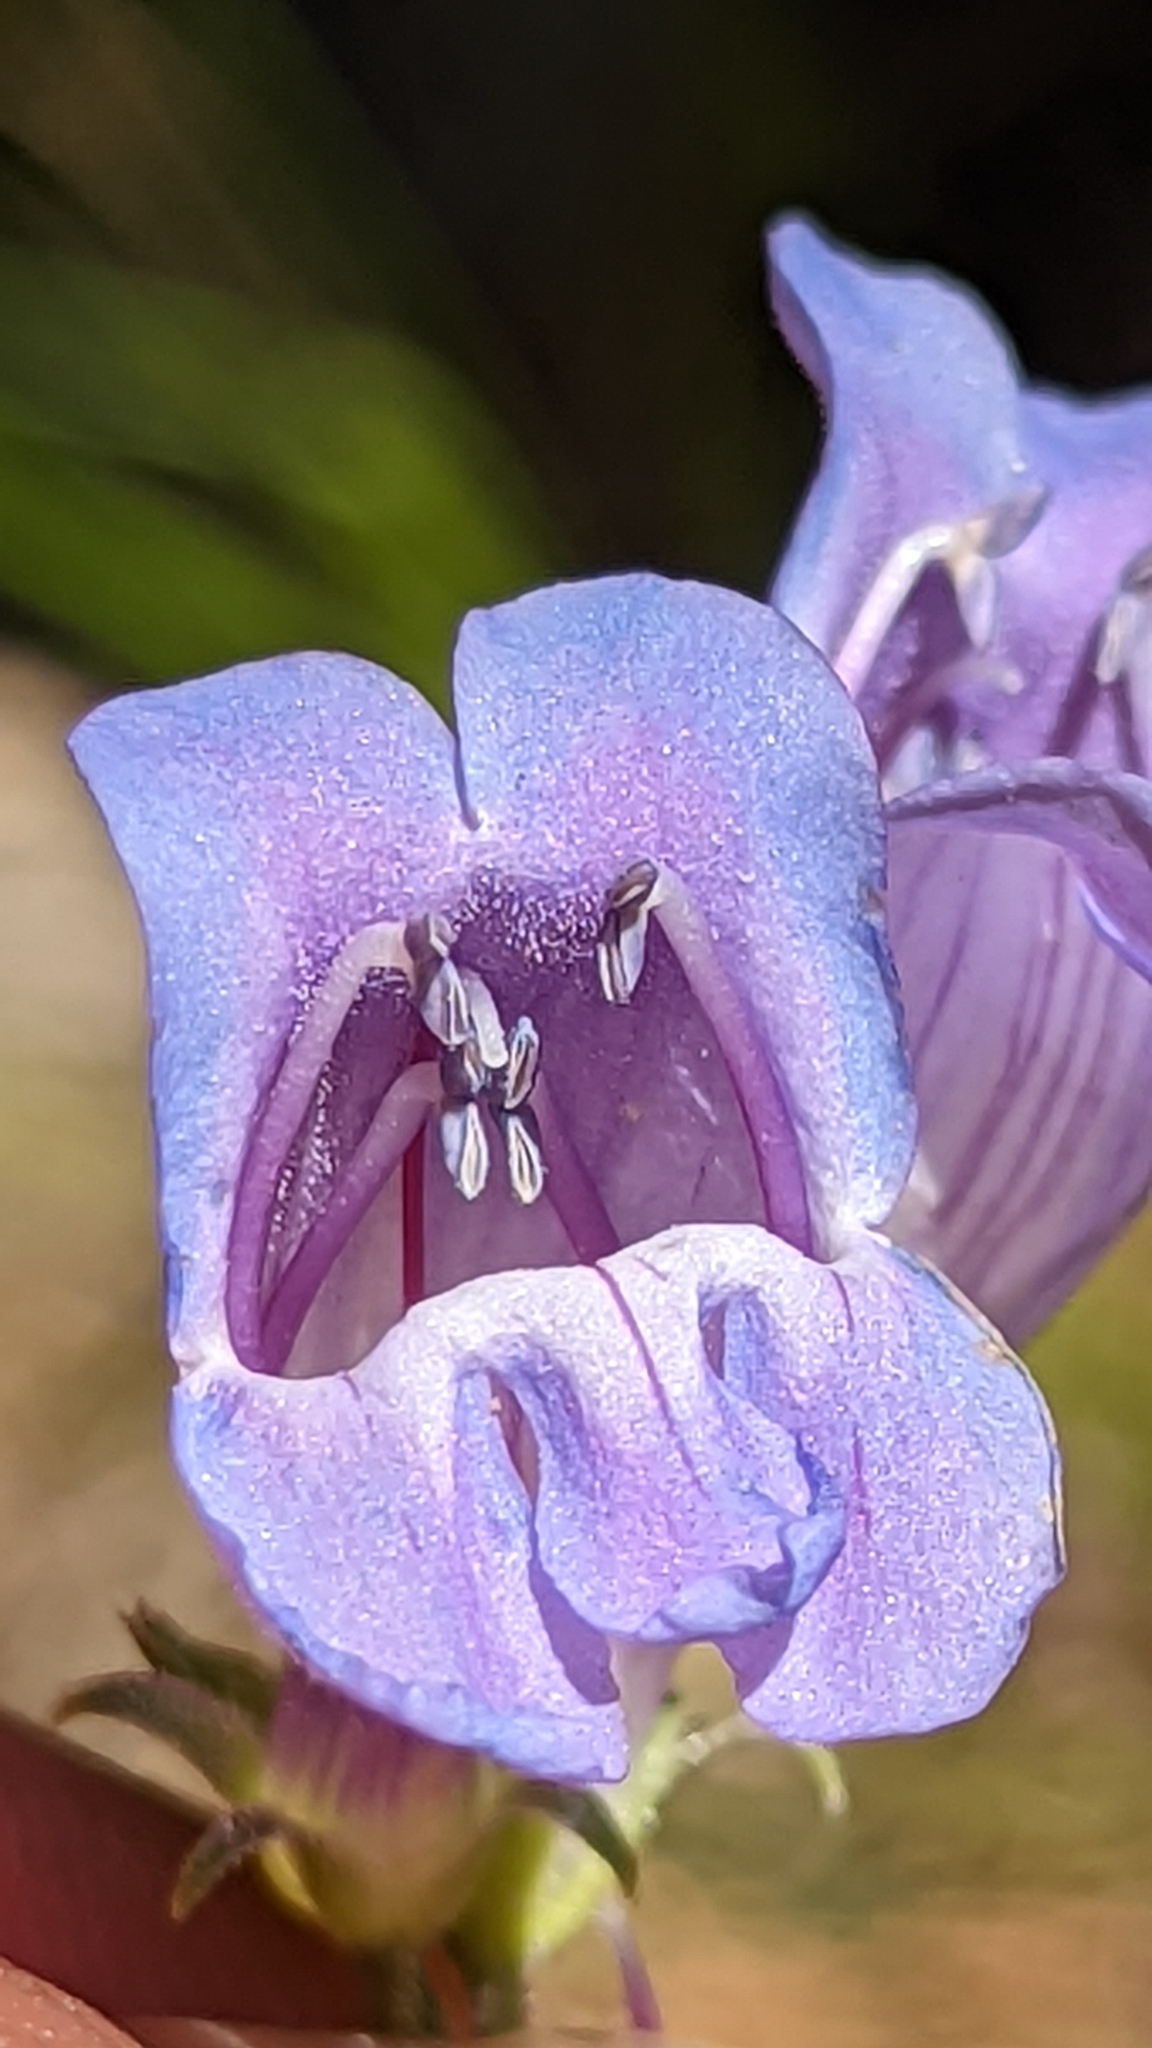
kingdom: Plantae
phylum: Tracheophyta
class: Magnoliopsida
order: Lamiales
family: Plantaginaceae
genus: Penstemon
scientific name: Penstemon leiophyllus
